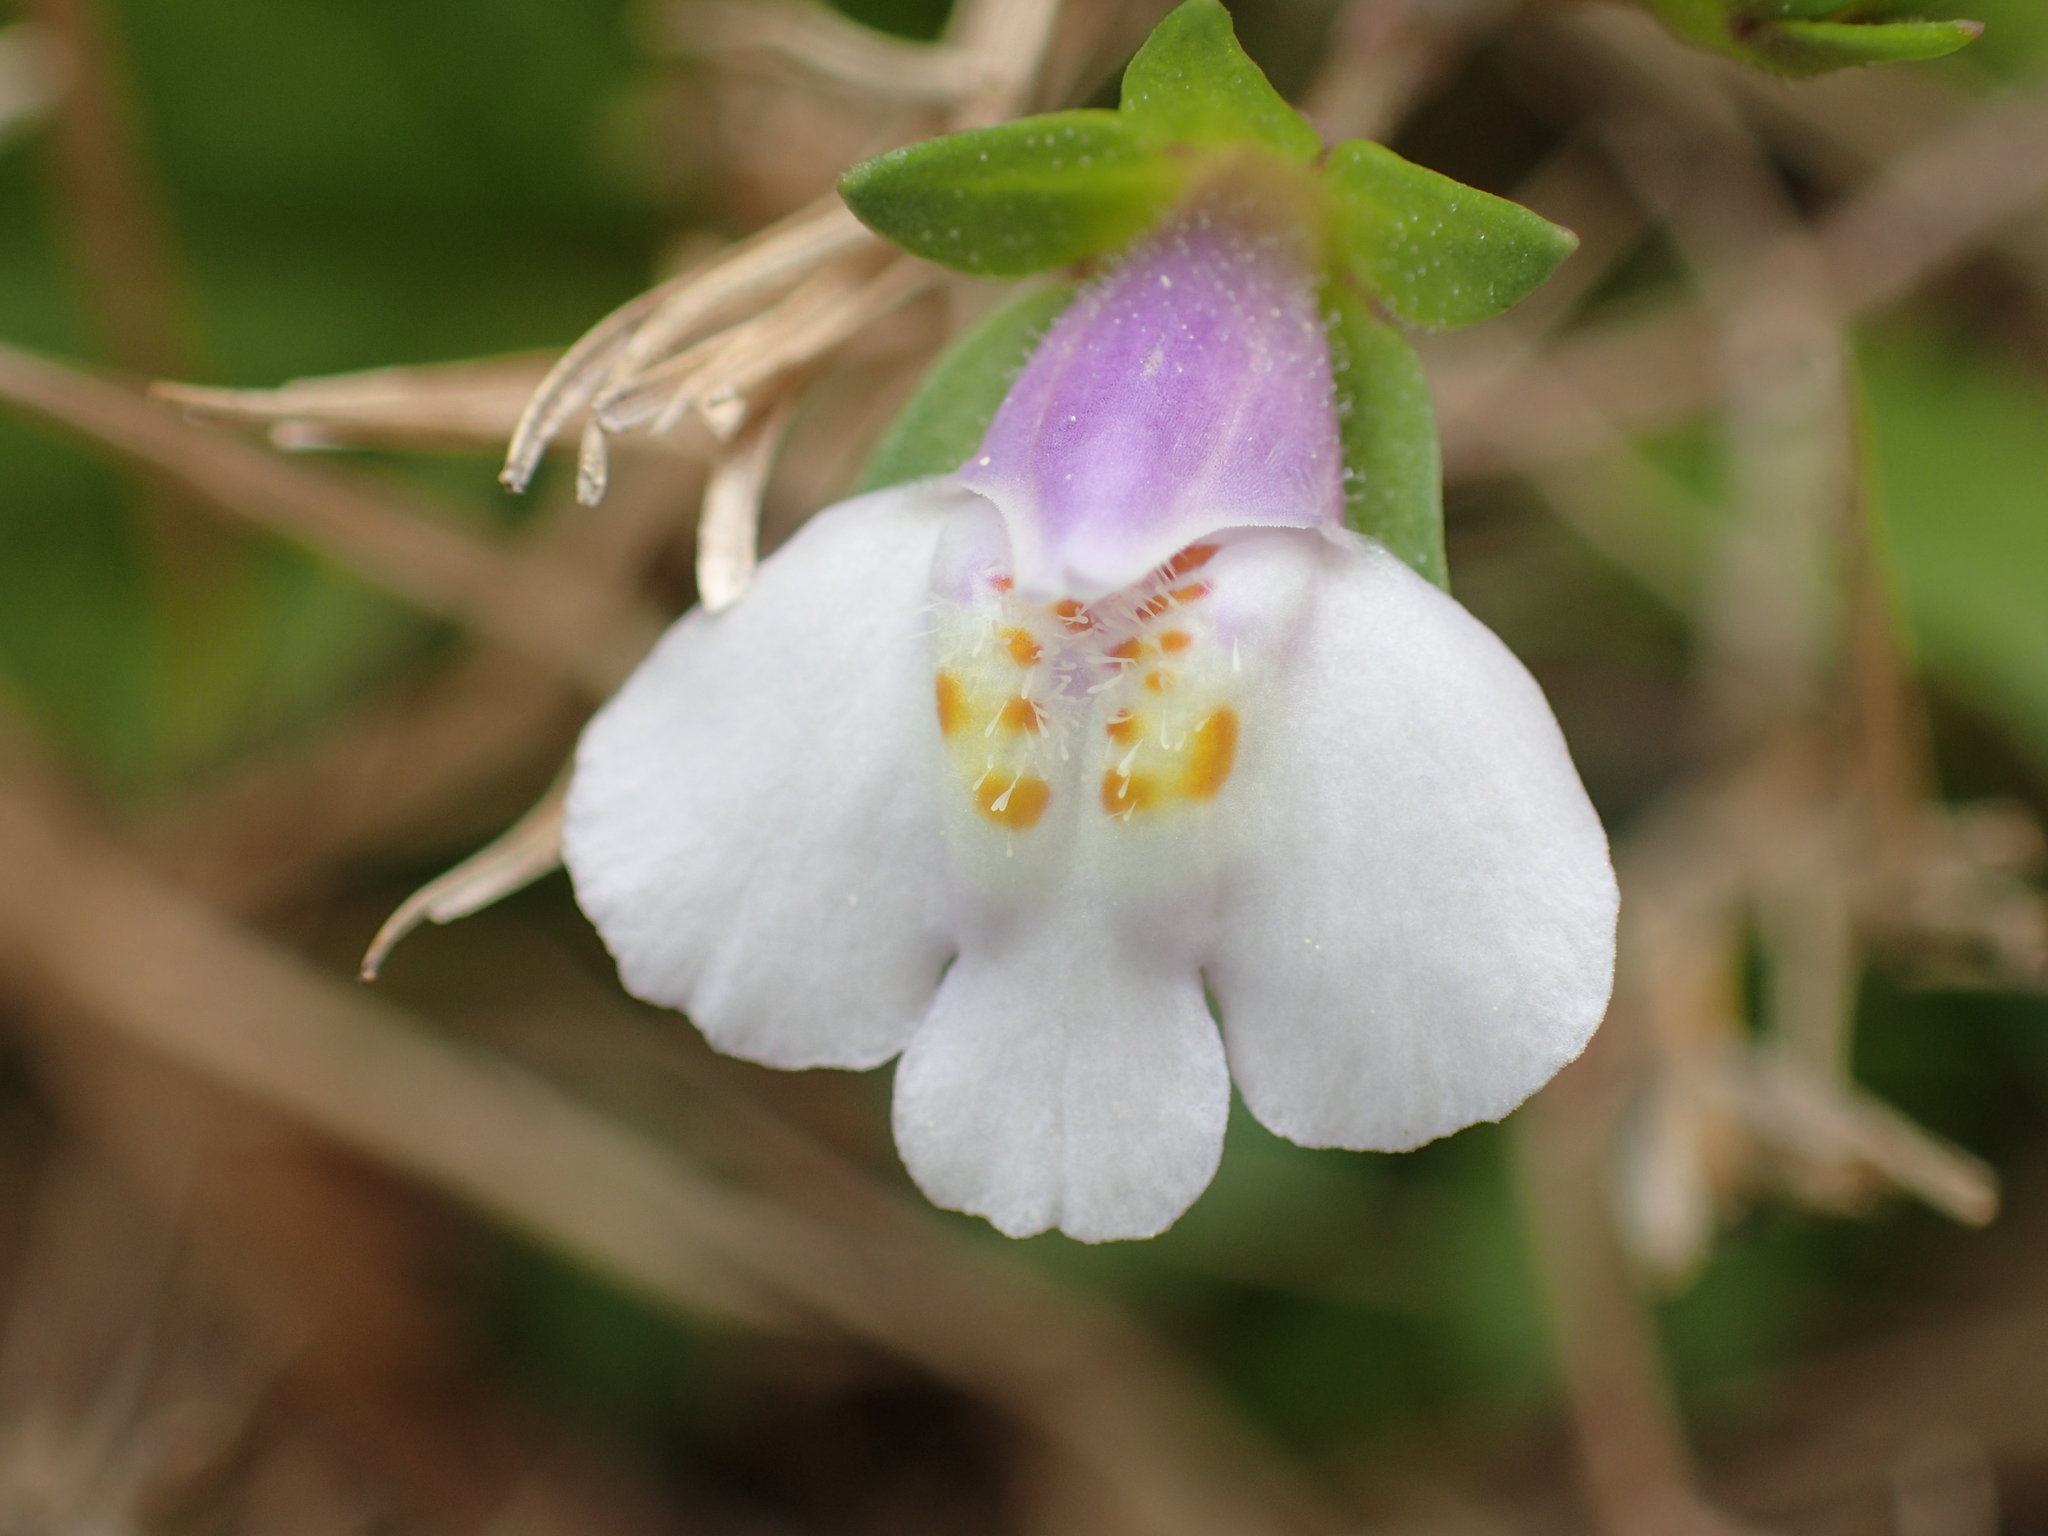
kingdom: Plantae
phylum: Tracheophyta
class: Magnoliopsida
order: Lamiales
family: Mazaceae
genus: Mazus
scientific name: Mazus pumilus
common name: Japanese mazus
